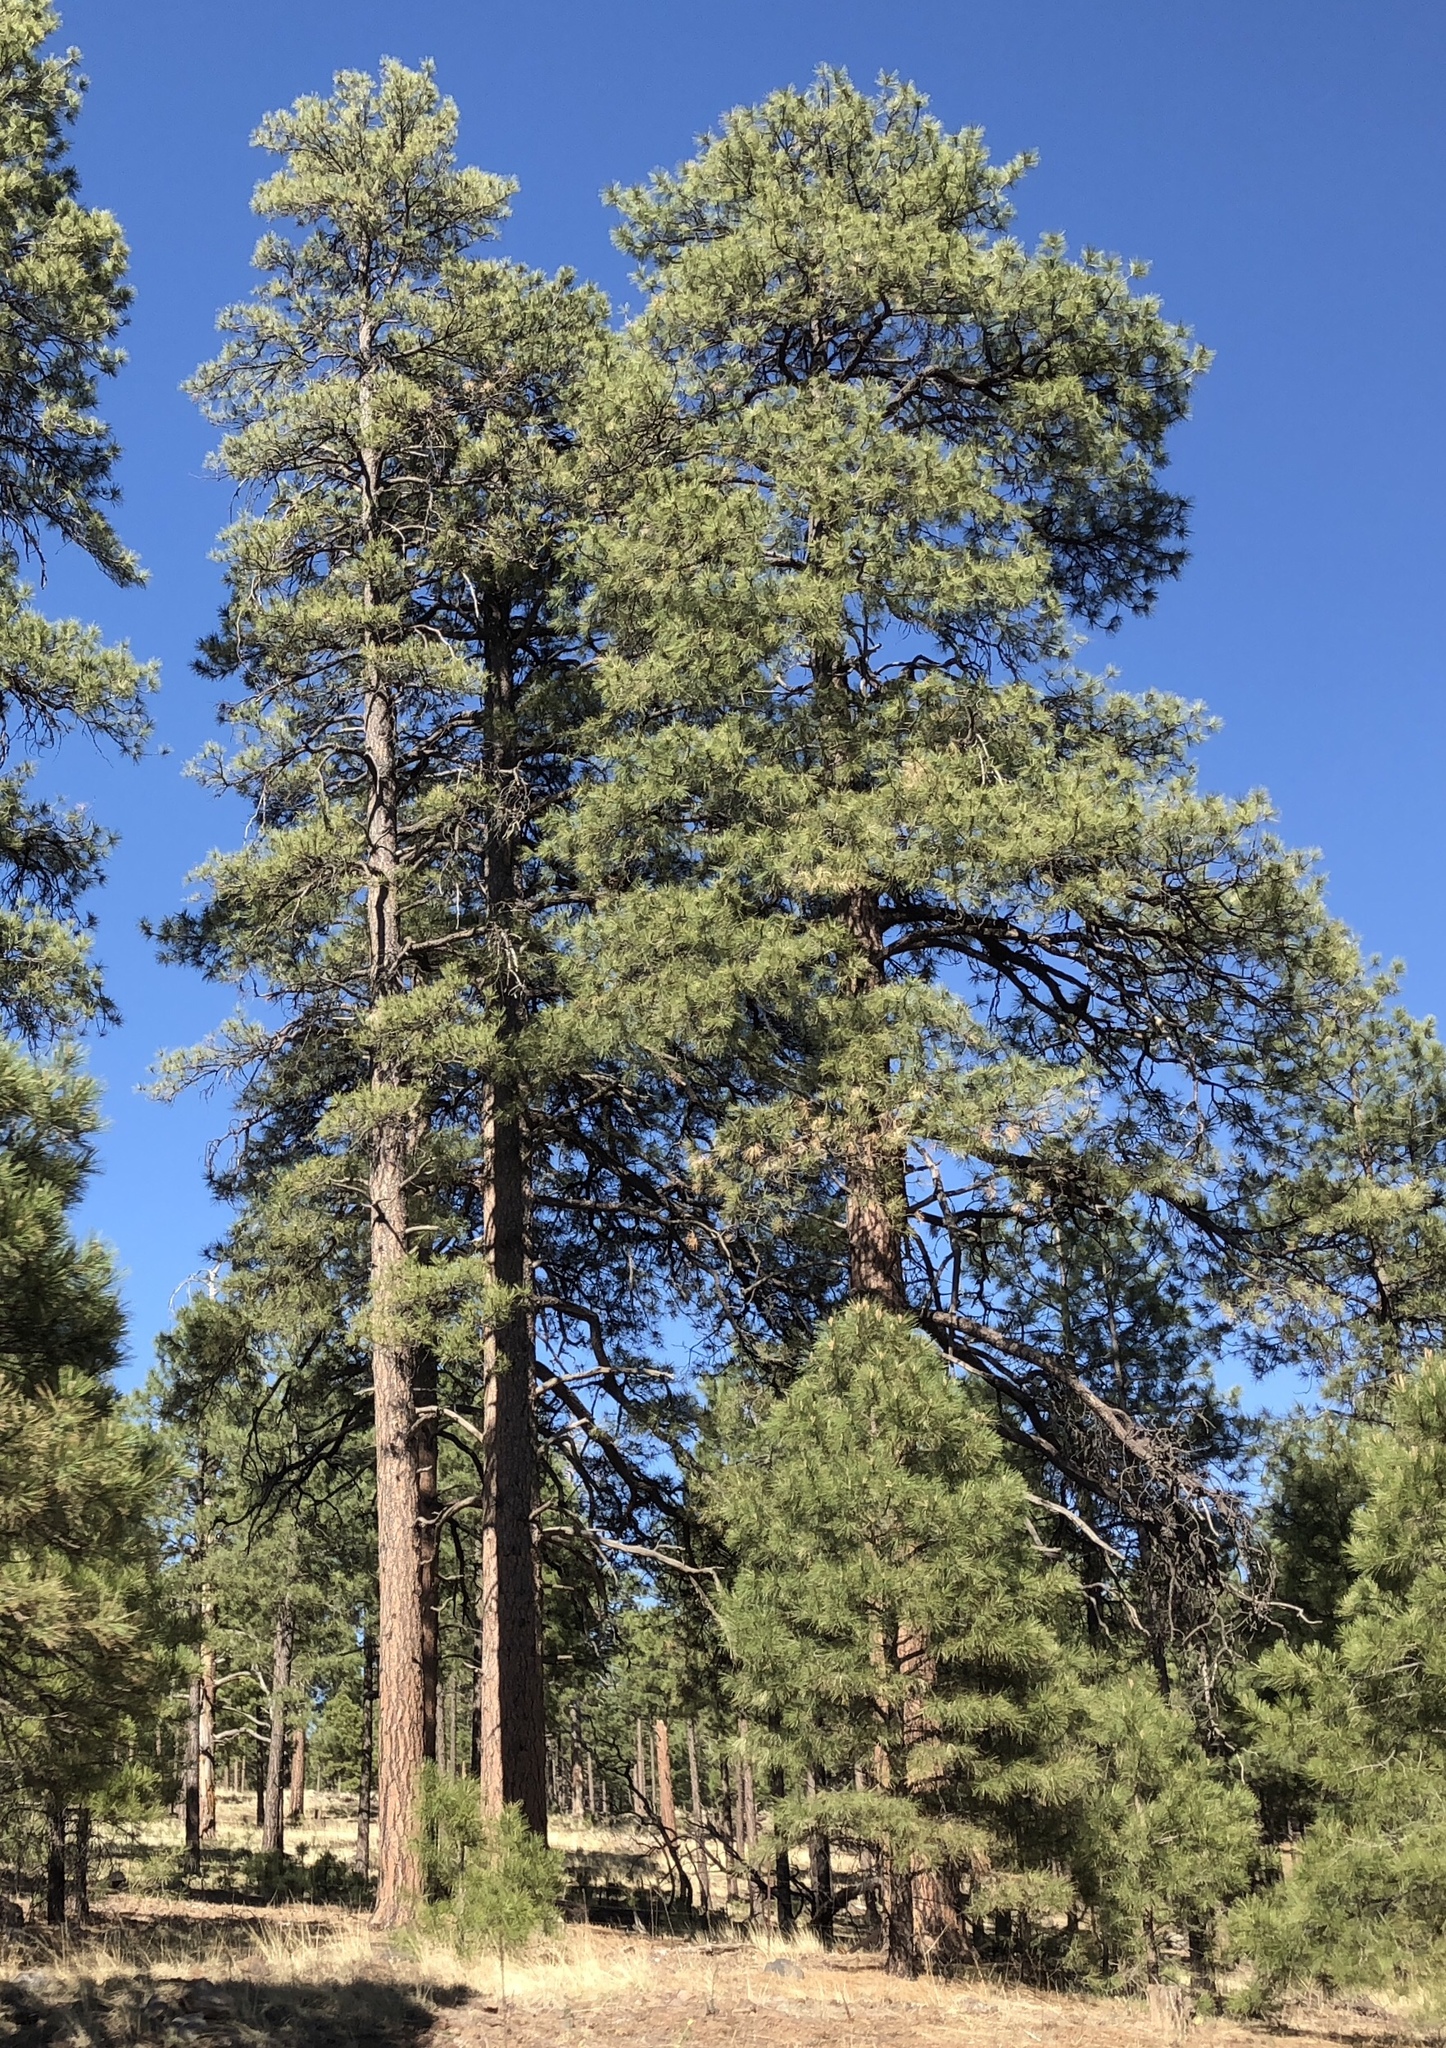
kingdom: Plantae
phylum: Tracheophyta
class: Pinopsida
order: Pinales
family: Pinaceae
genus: Pinus
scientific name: Pinus ponderosa
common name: Western yellow-pine
